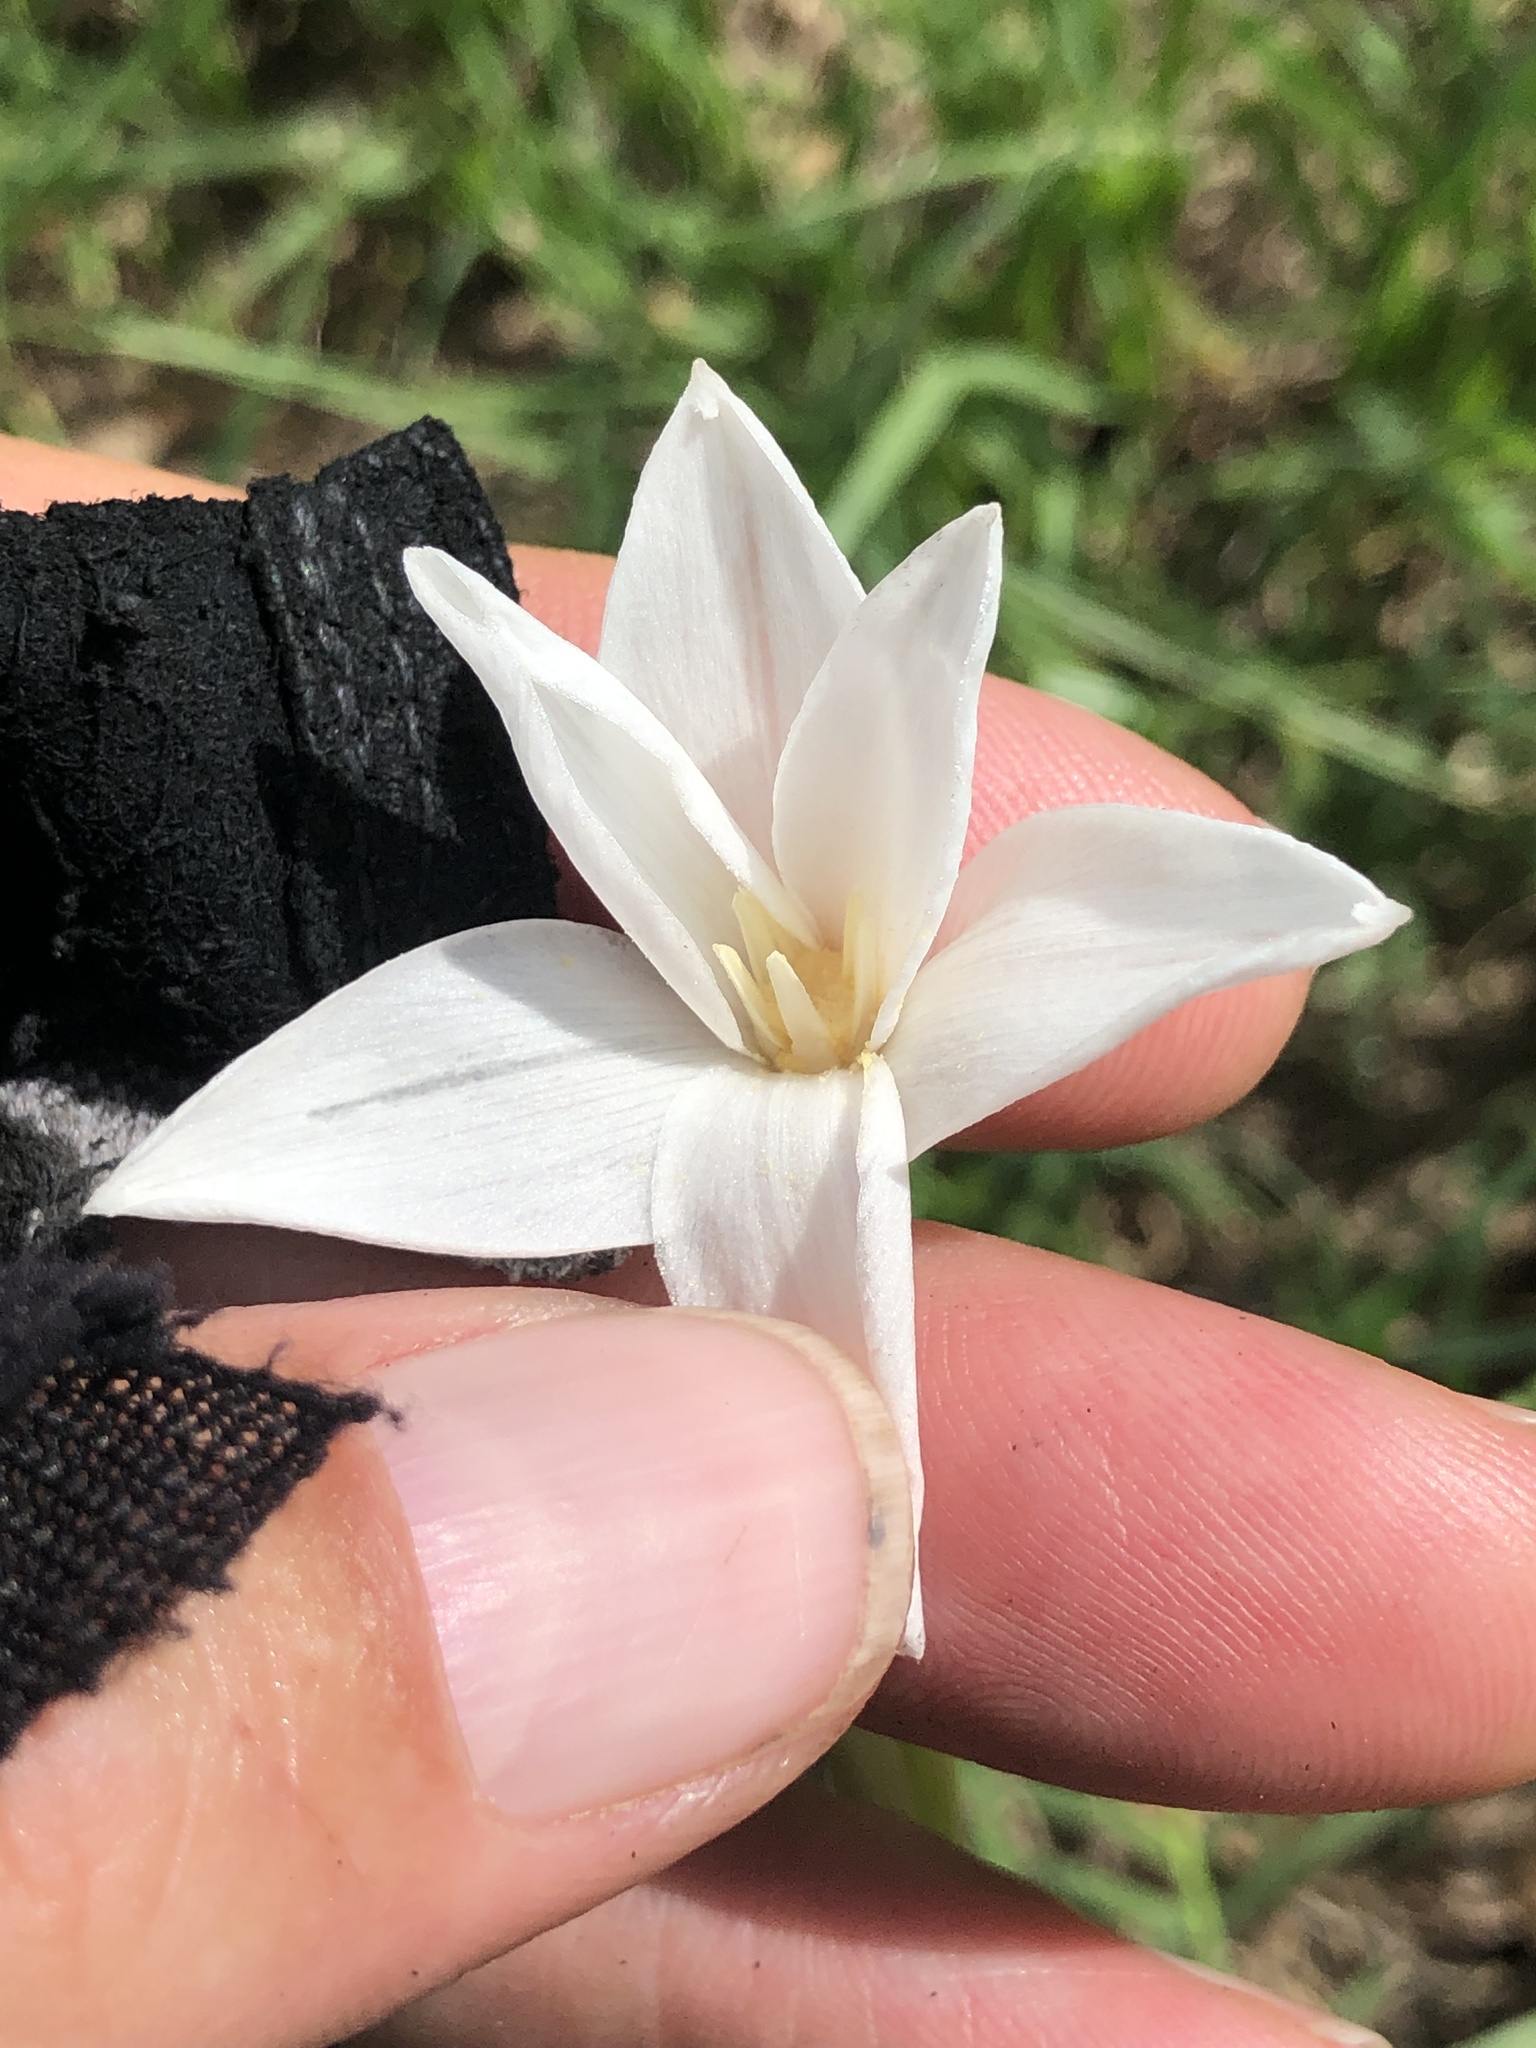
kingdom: Plantae
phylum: Tracheophyta
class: Liliopsida
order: Asparagales
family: Amaryllidaceae
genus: Zephyranthes
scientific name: Zephyranthes chlorosolen
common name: Evening rain-lily
